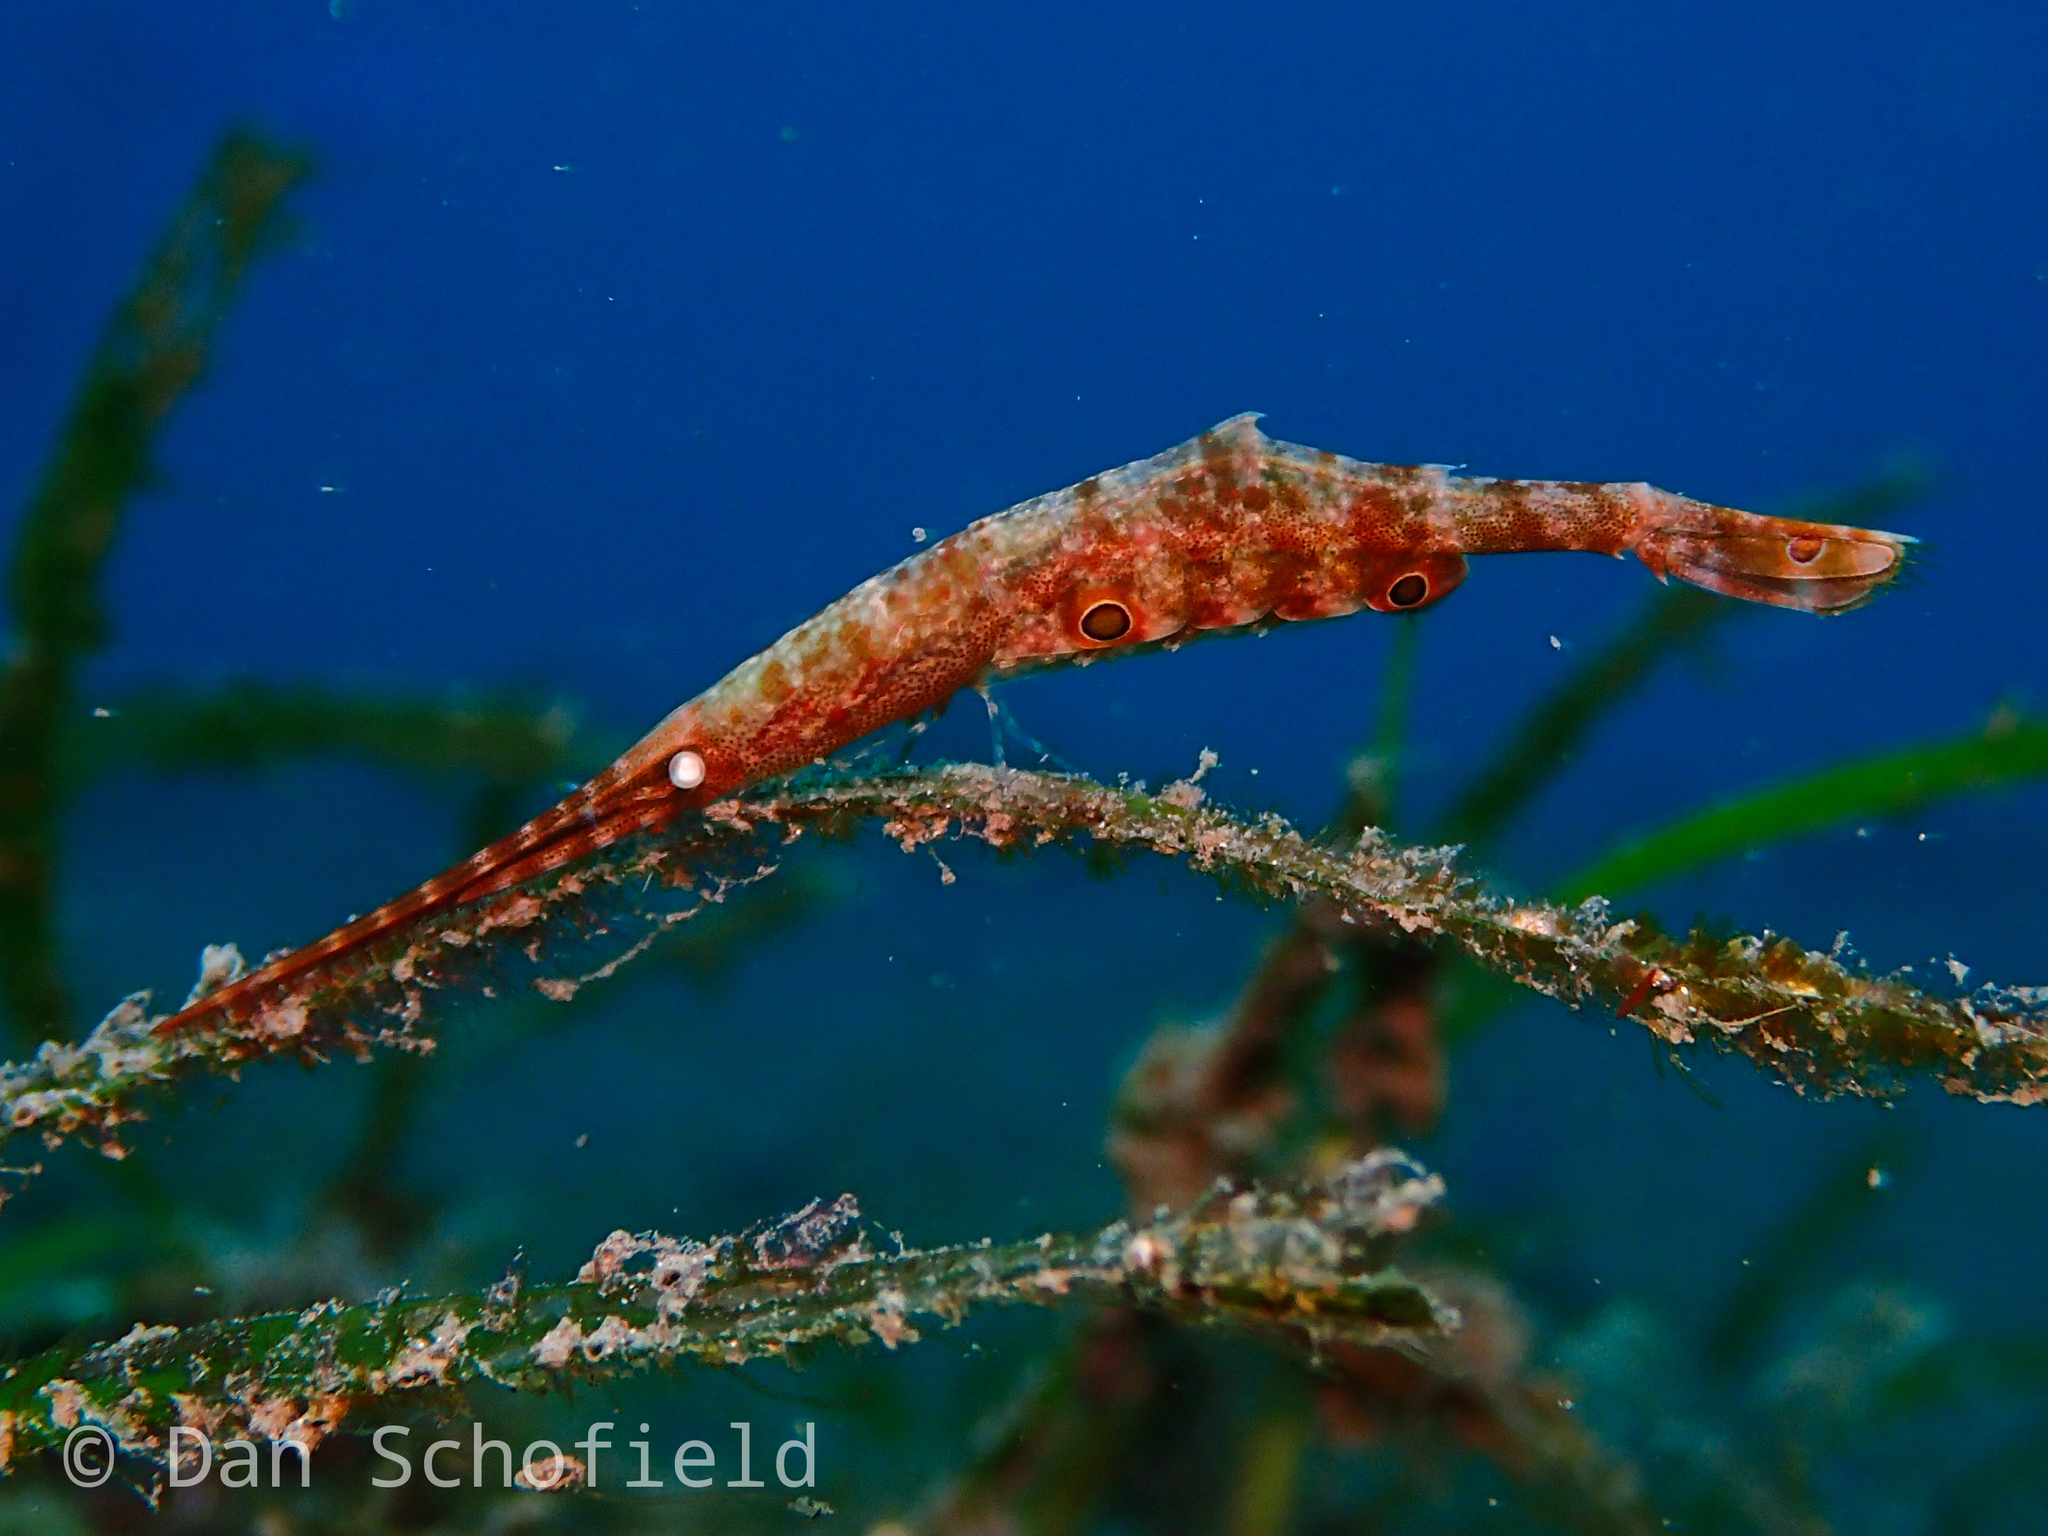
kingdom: Animalia
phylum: Arthropoda
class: Malacostraca
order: Decapoda
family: Hippolytidae
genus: Tozeuma
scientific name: Tozeuma lanceolatum
